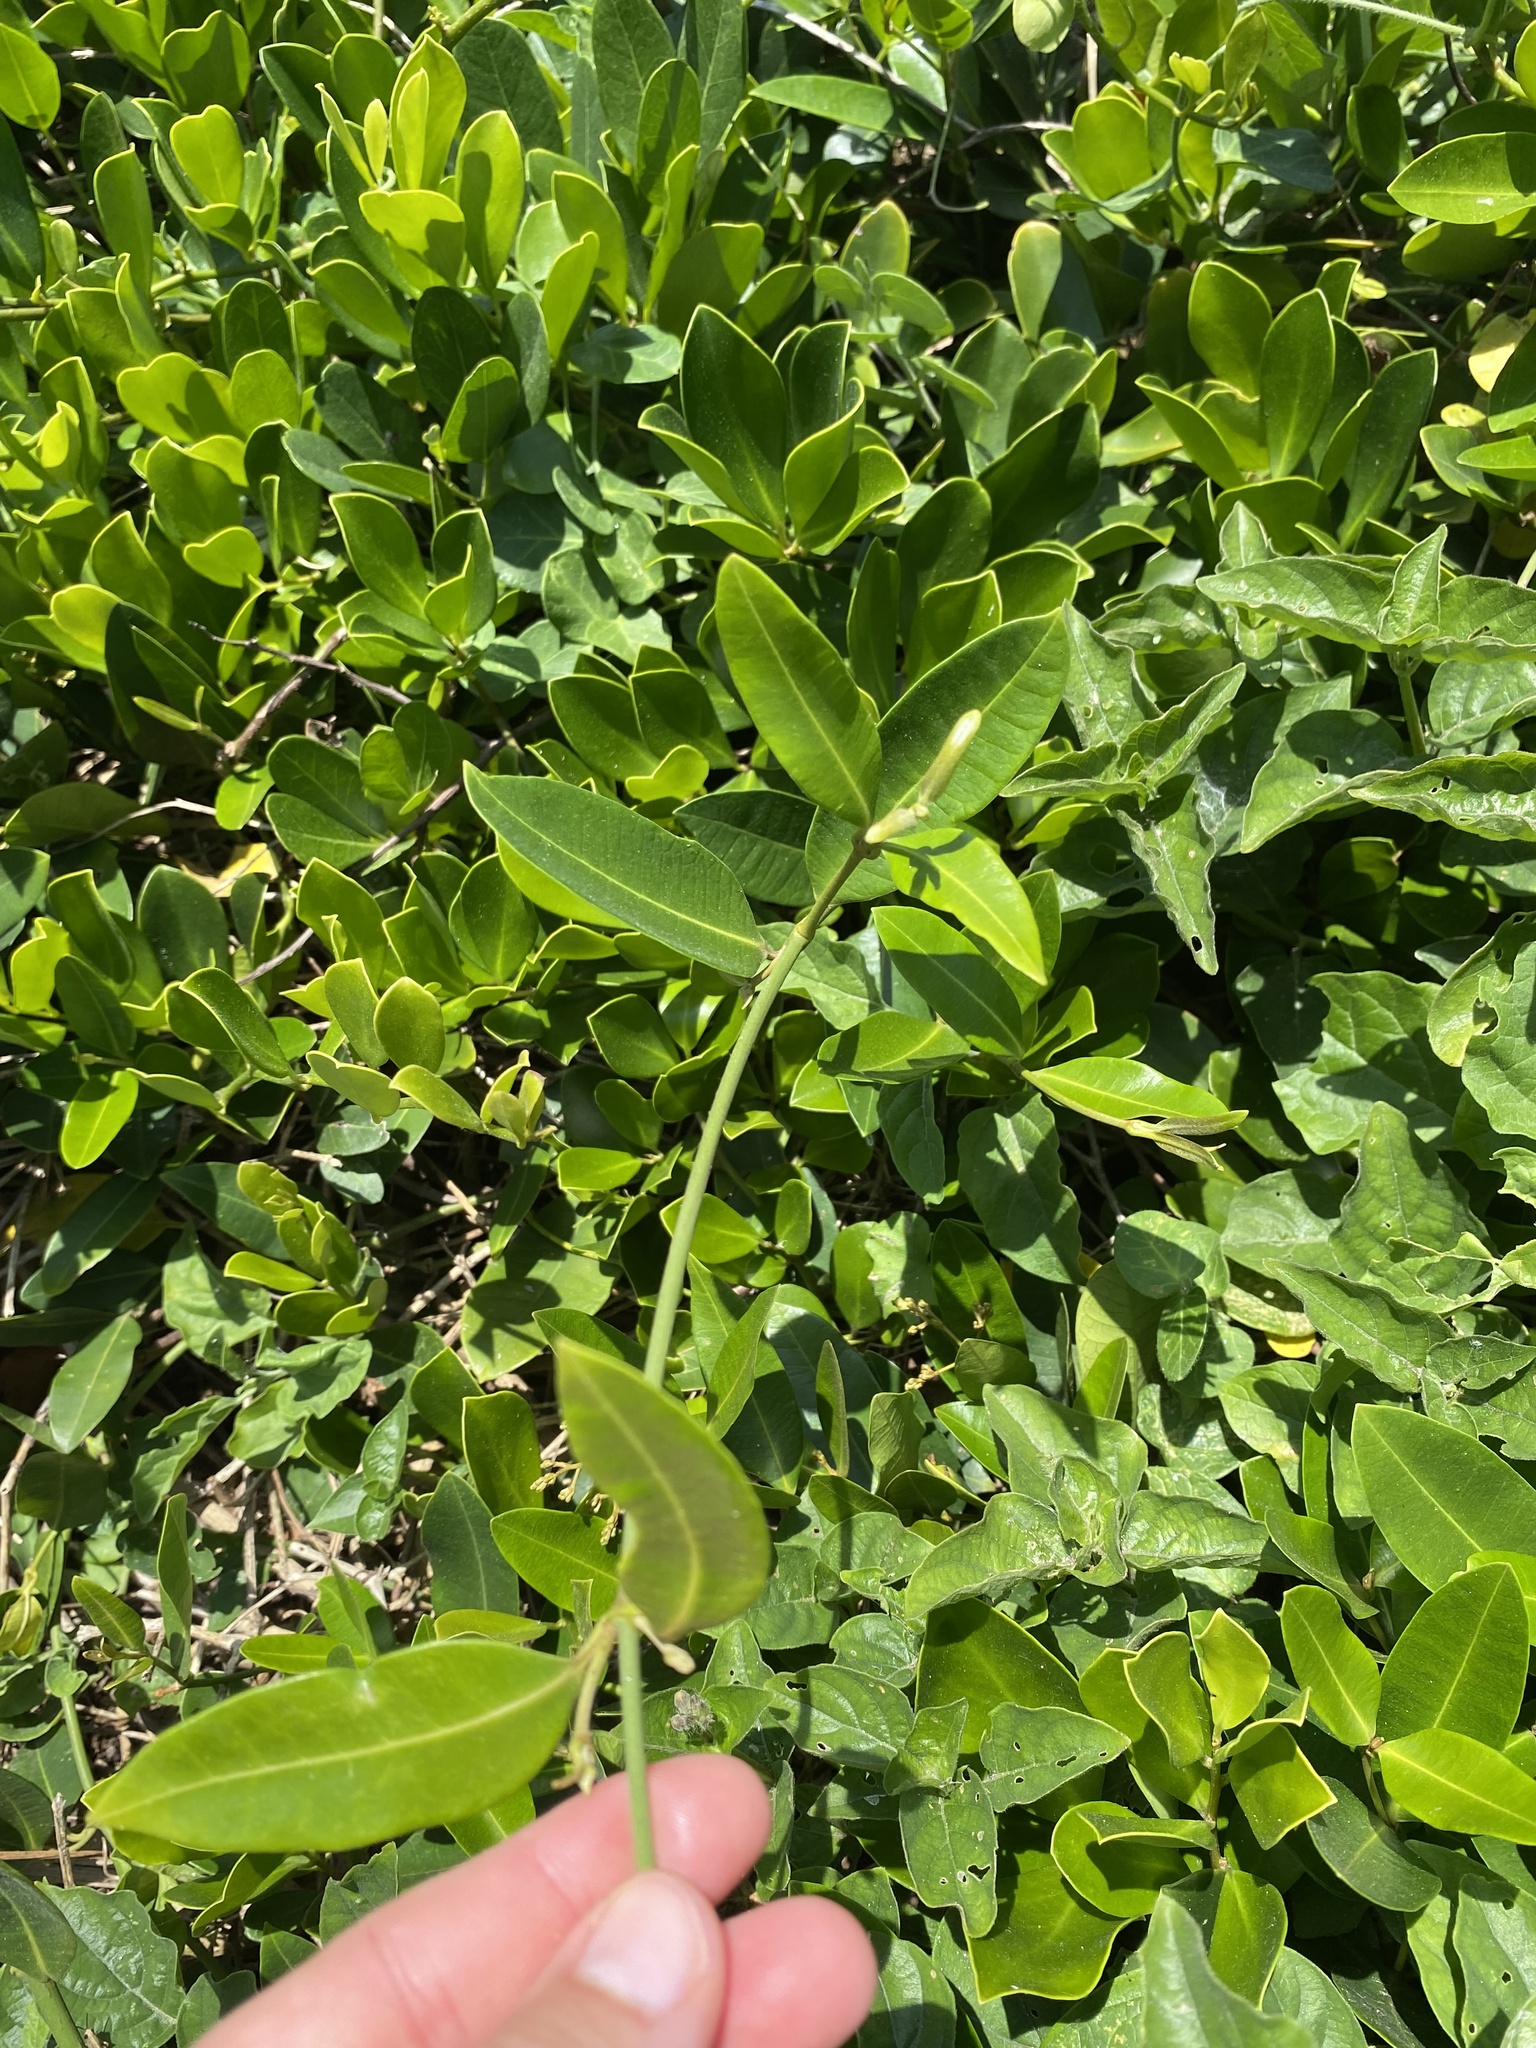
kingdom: Plantae
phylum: Tracheophyta
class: Magnoliopsida
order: Gentianales
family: Apocynaceae
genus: Secamone
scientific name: Secamone alpini
